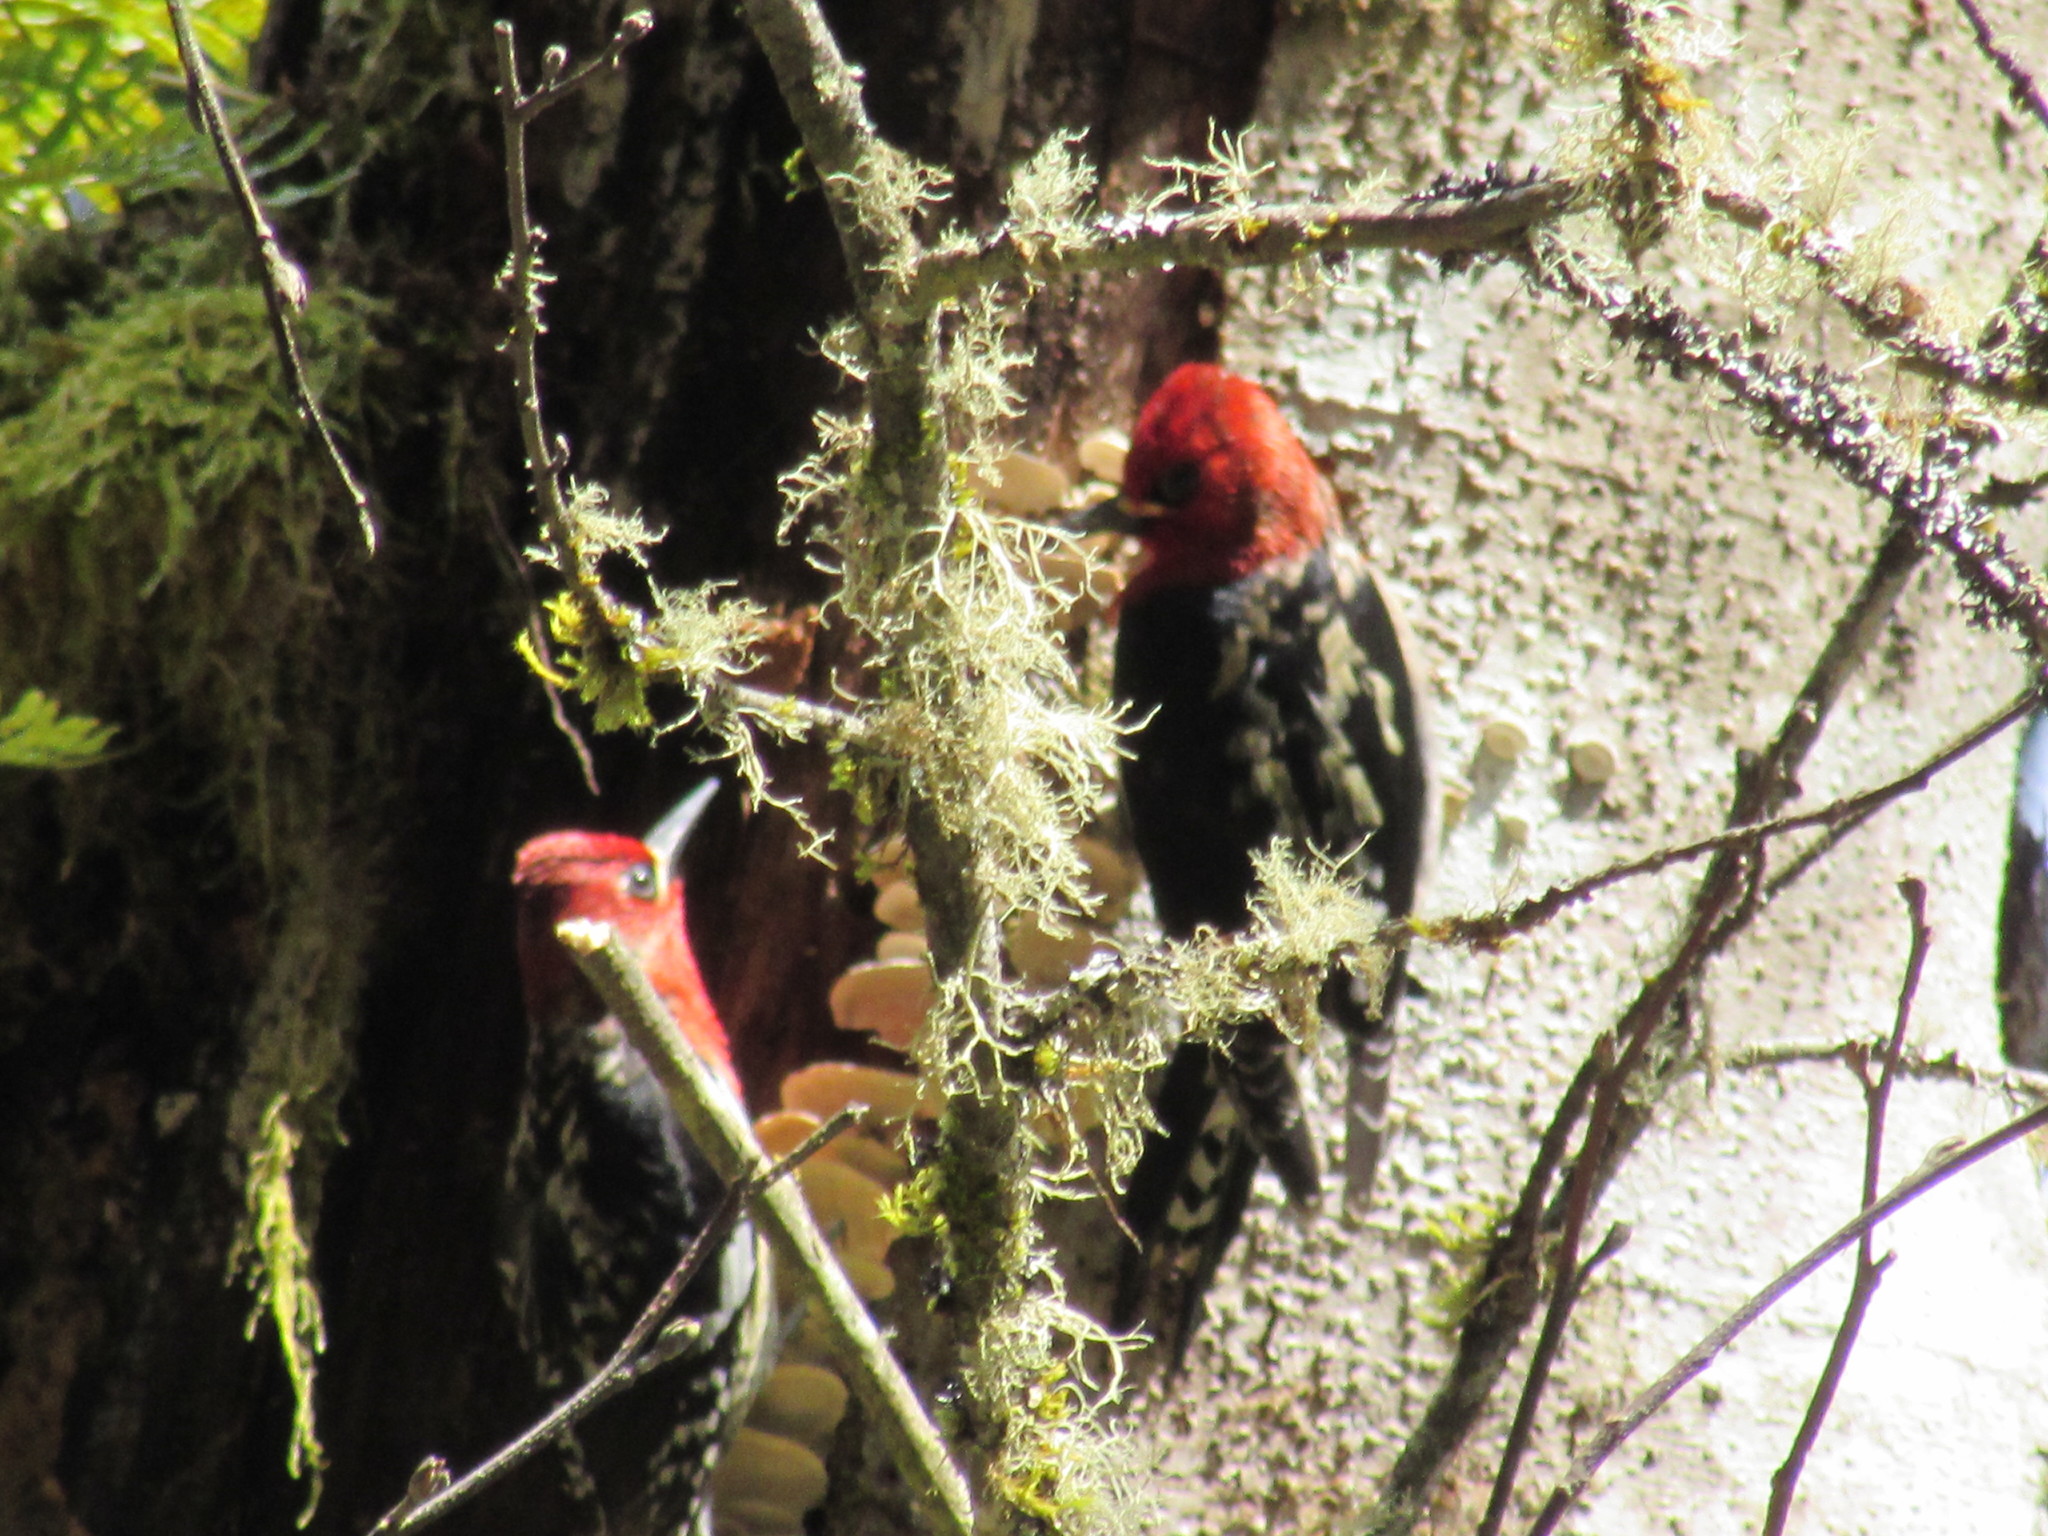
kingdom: Animalia
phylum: Chordata
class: Aves
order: Piciformes
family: Picidae
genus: Sphyrapicus
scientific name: Sphyrapicus ruber
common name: Red-breasted sapsucker
